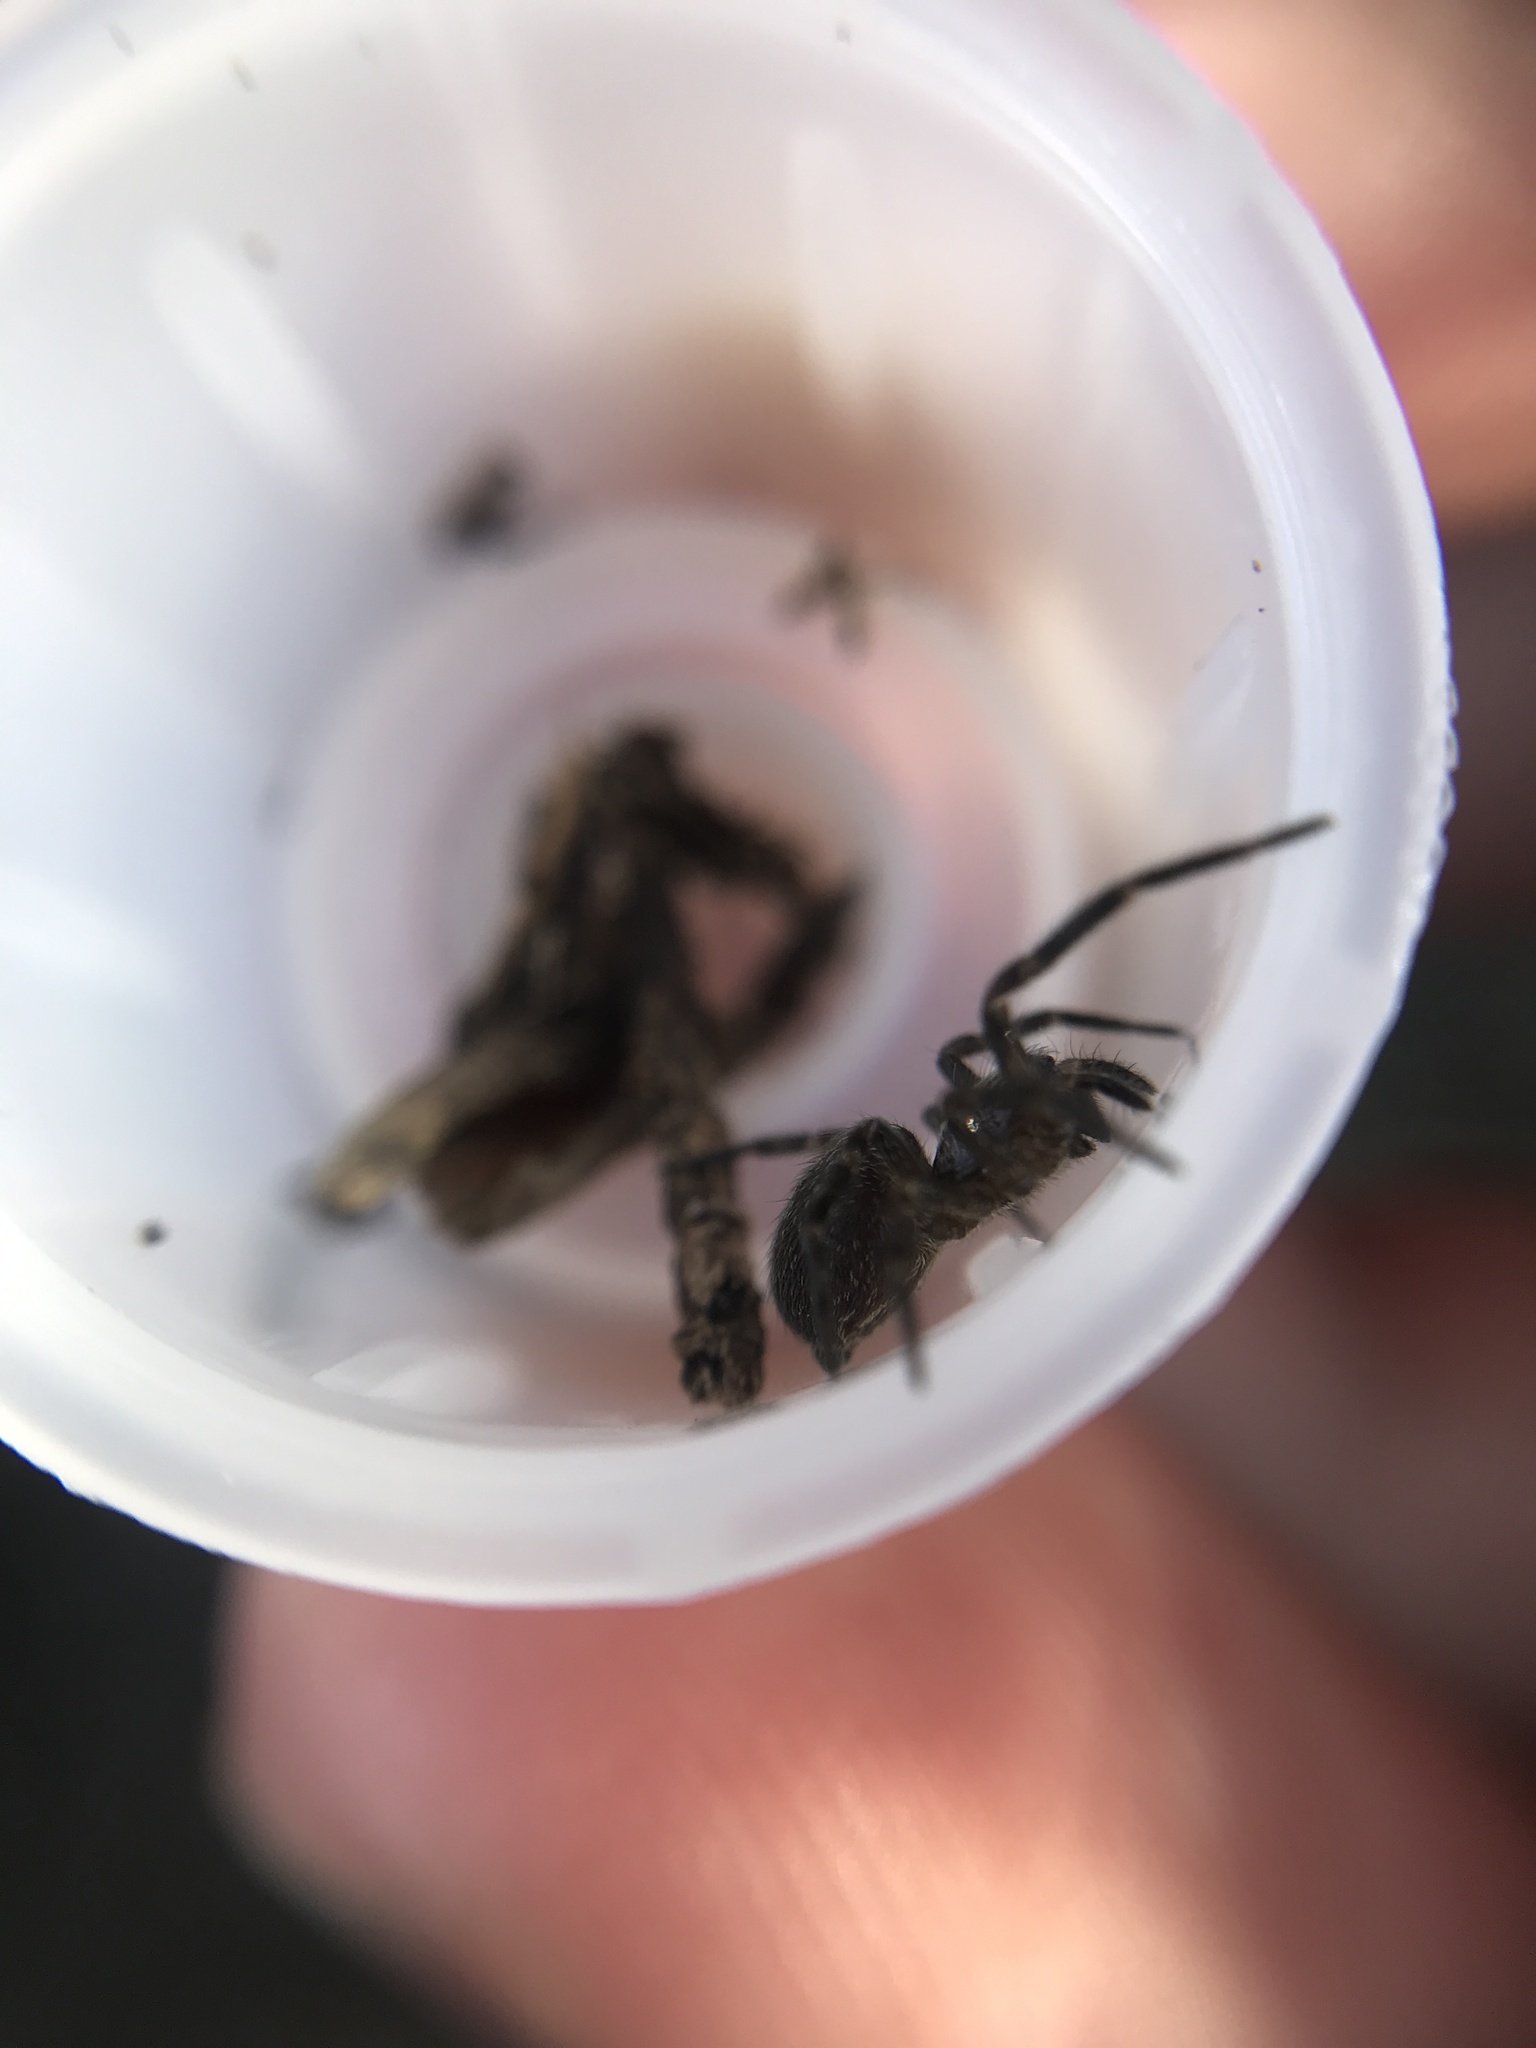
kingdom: Animalia
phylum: Arthropoda
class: Arachnida
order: Araneae
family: Desidae
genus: Badumna
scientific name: Badumna longinqua
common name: Gray house spider
